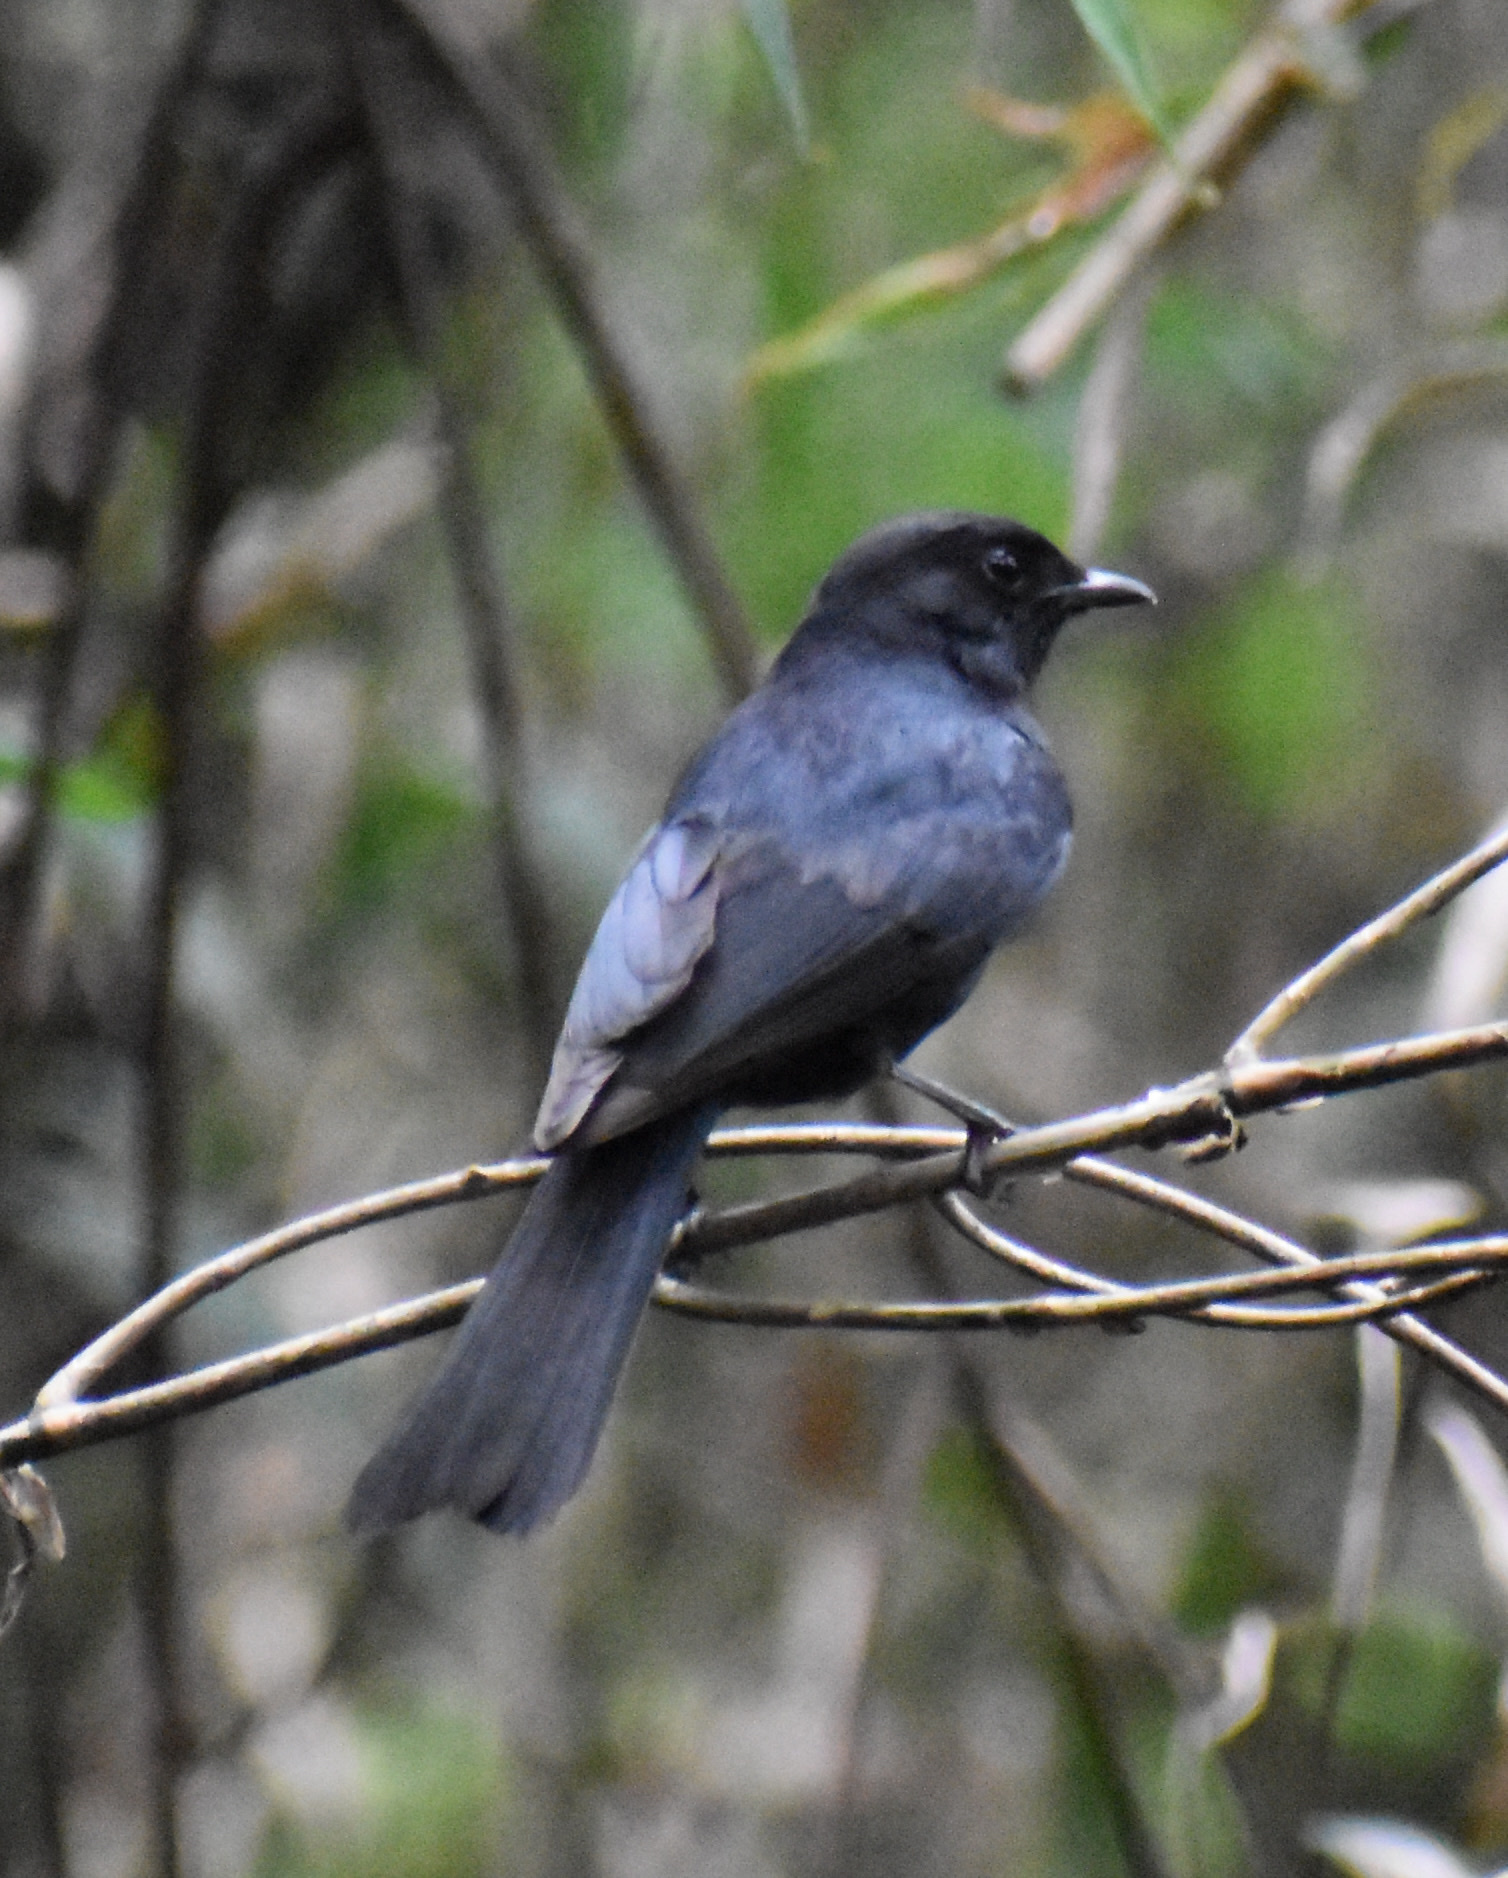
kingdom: Animalia
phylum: Chordata
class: Aves
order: Passeriformes
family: Muscicapidae
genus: Melaenornis
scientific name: Melaenornis pammelaina
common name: Southern black flycatcher
